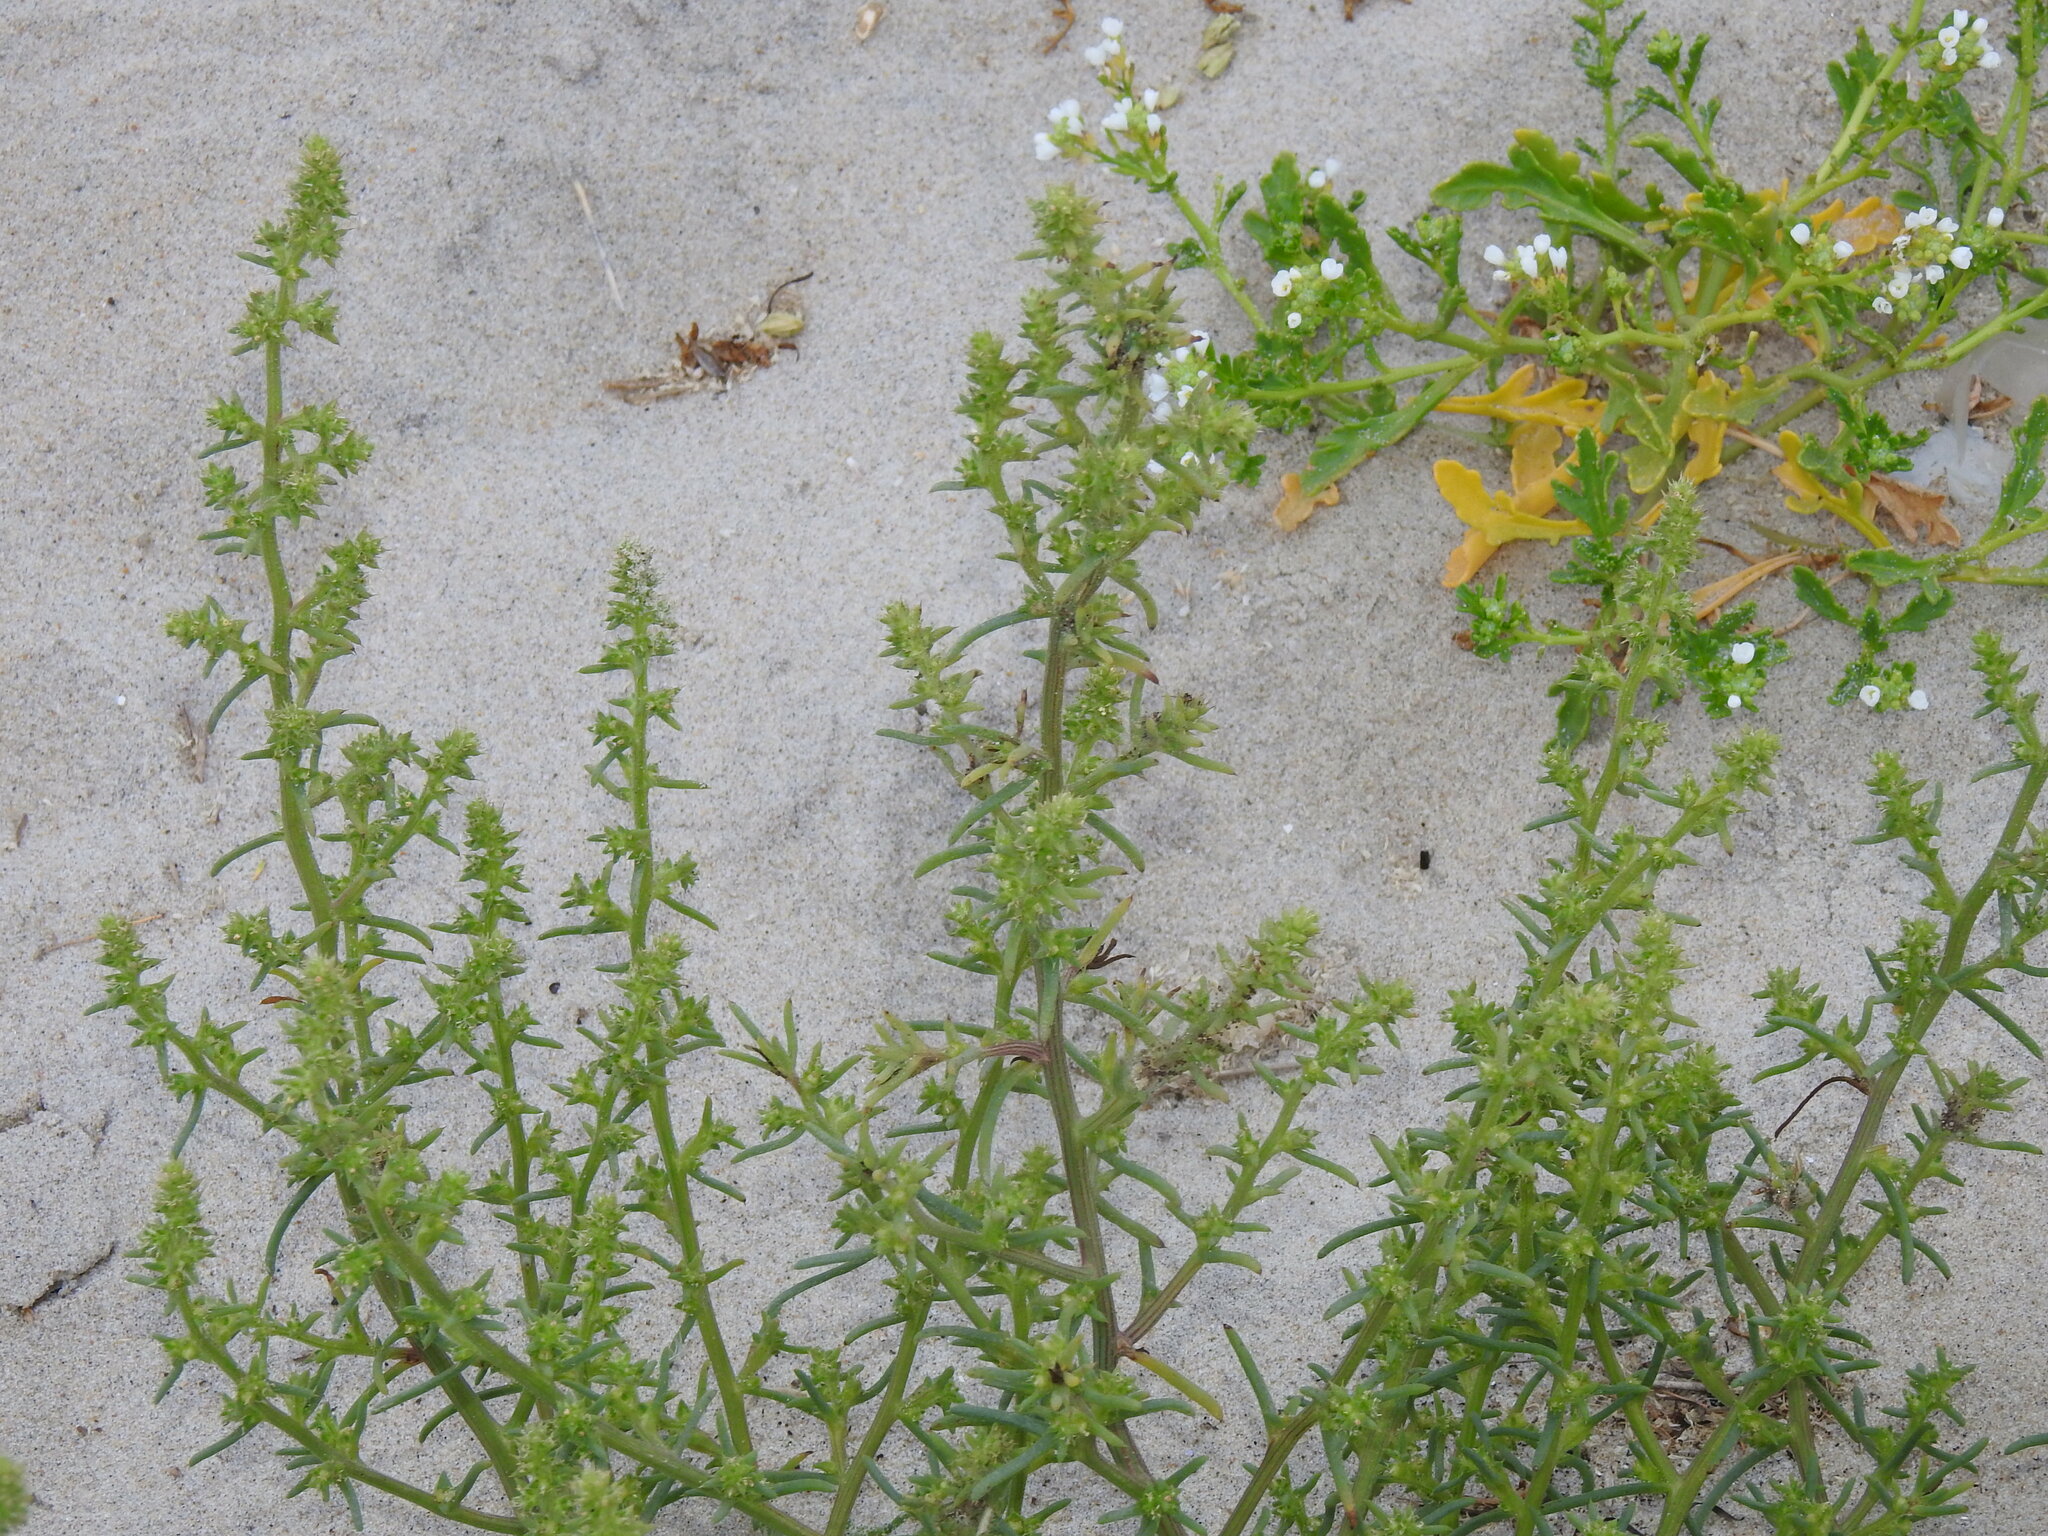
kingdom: Plantae
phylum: Tracheophyta
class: Magnoliopsida
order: Caryophyllales
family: Amaranthaceae
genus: Salsola
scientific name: Salsola kali
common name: Saltwort
